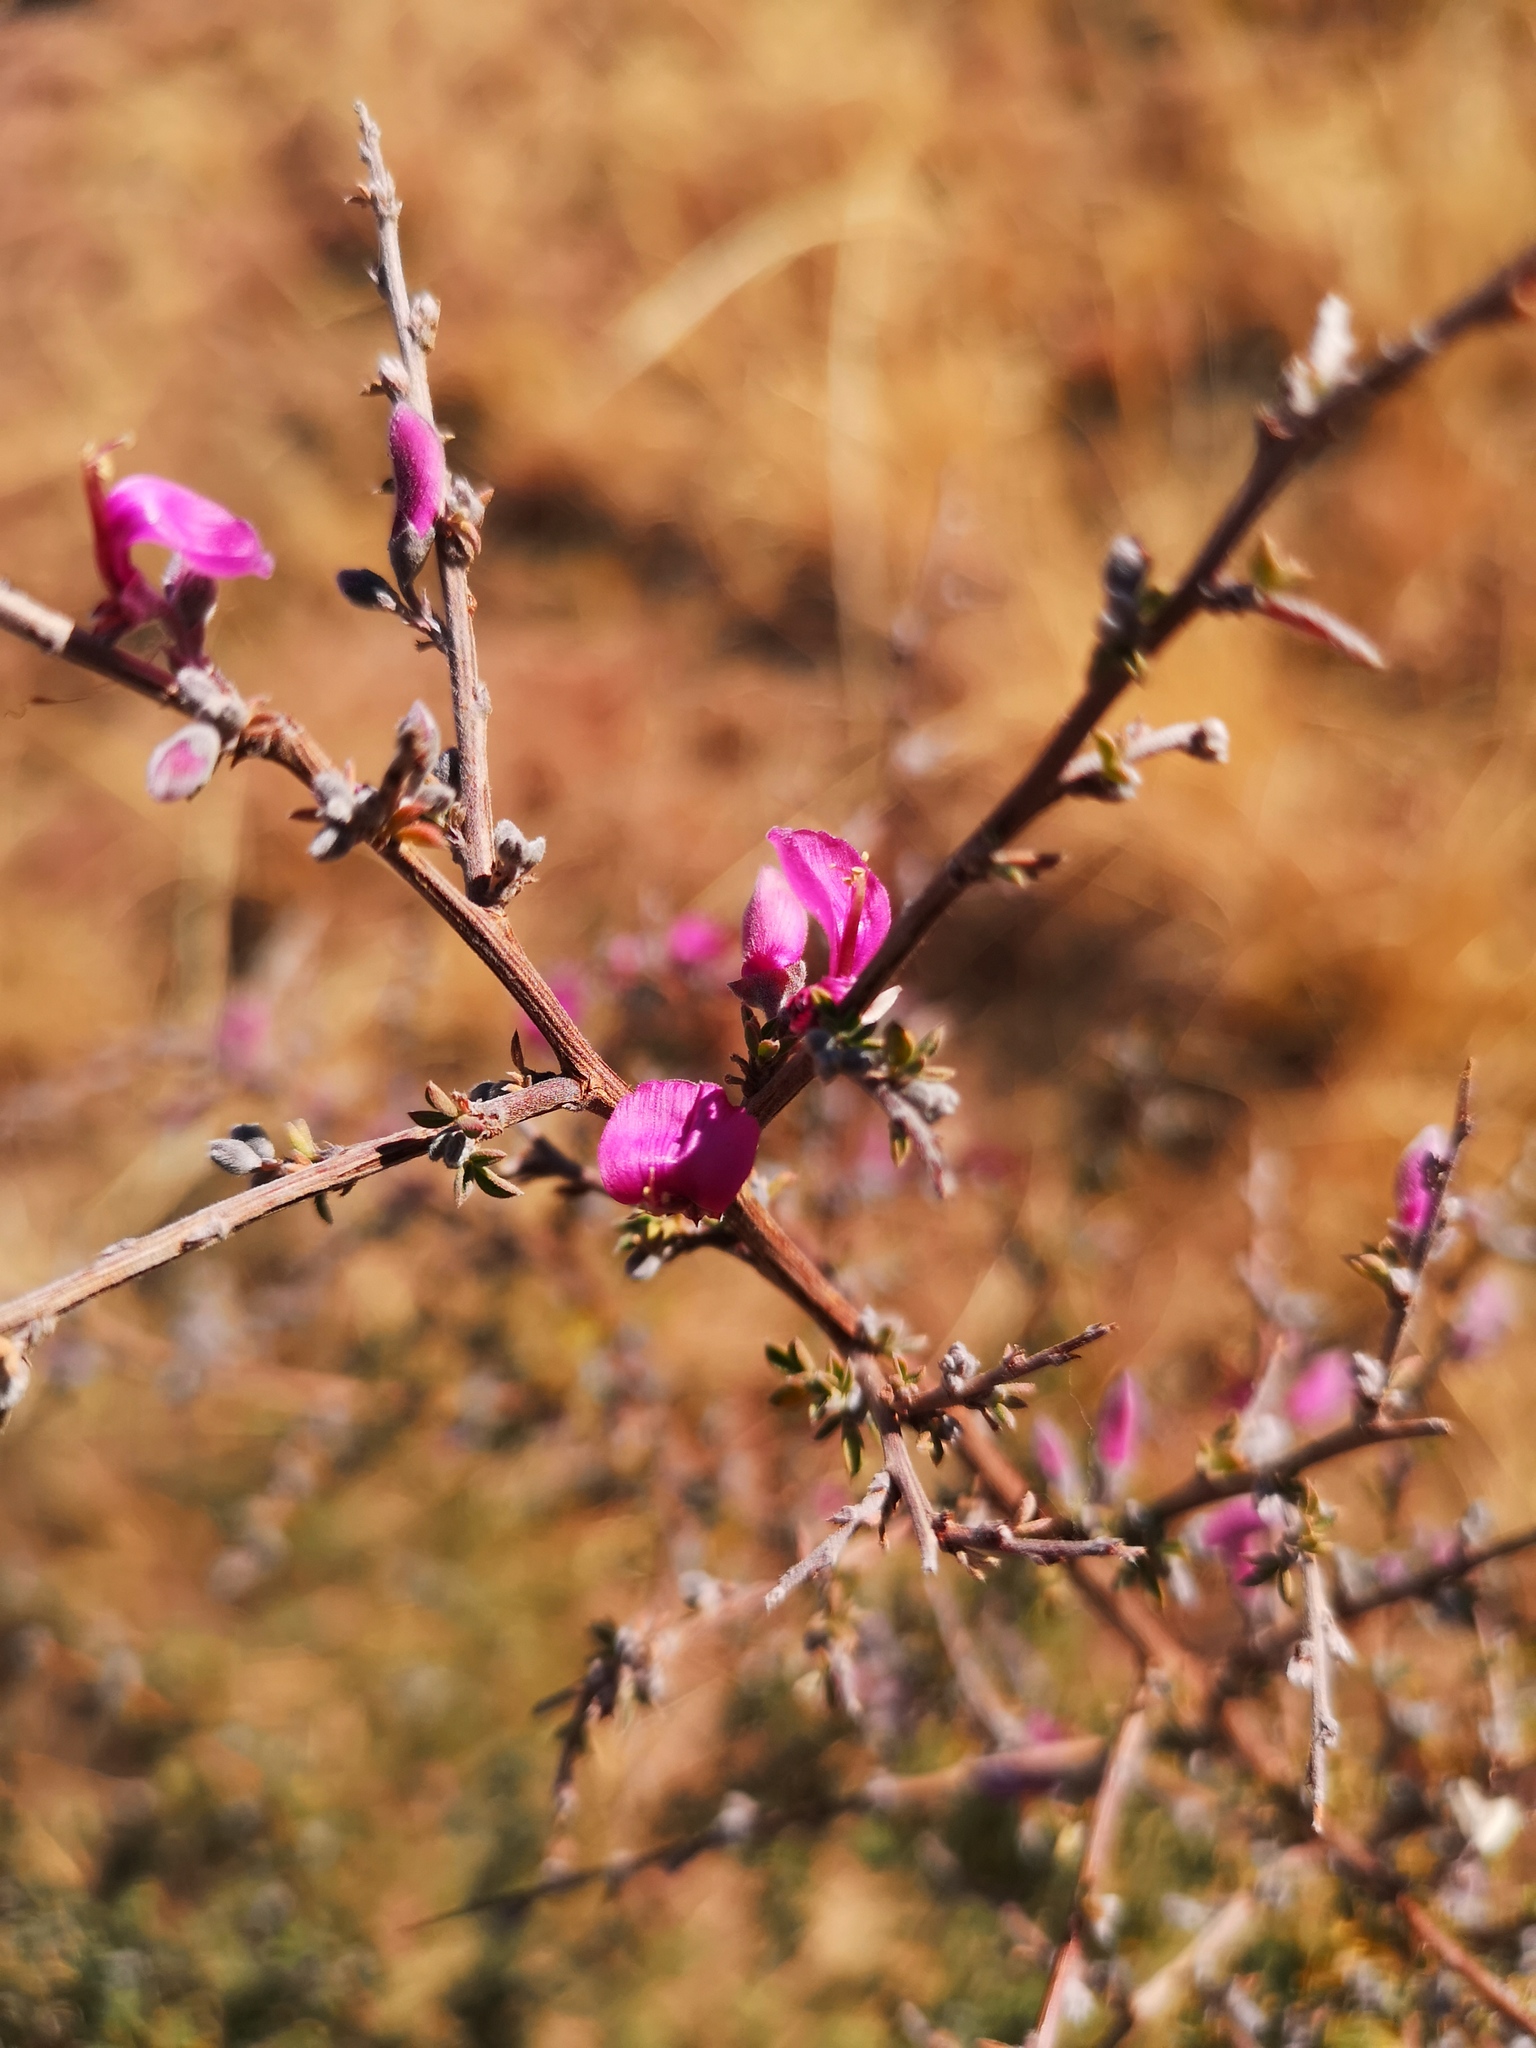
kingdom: Plantae
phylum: Tracheophyta
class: Magnoliopsida
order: Fabales
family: Fabaceae
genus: Indigofera
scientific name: Indigofera
